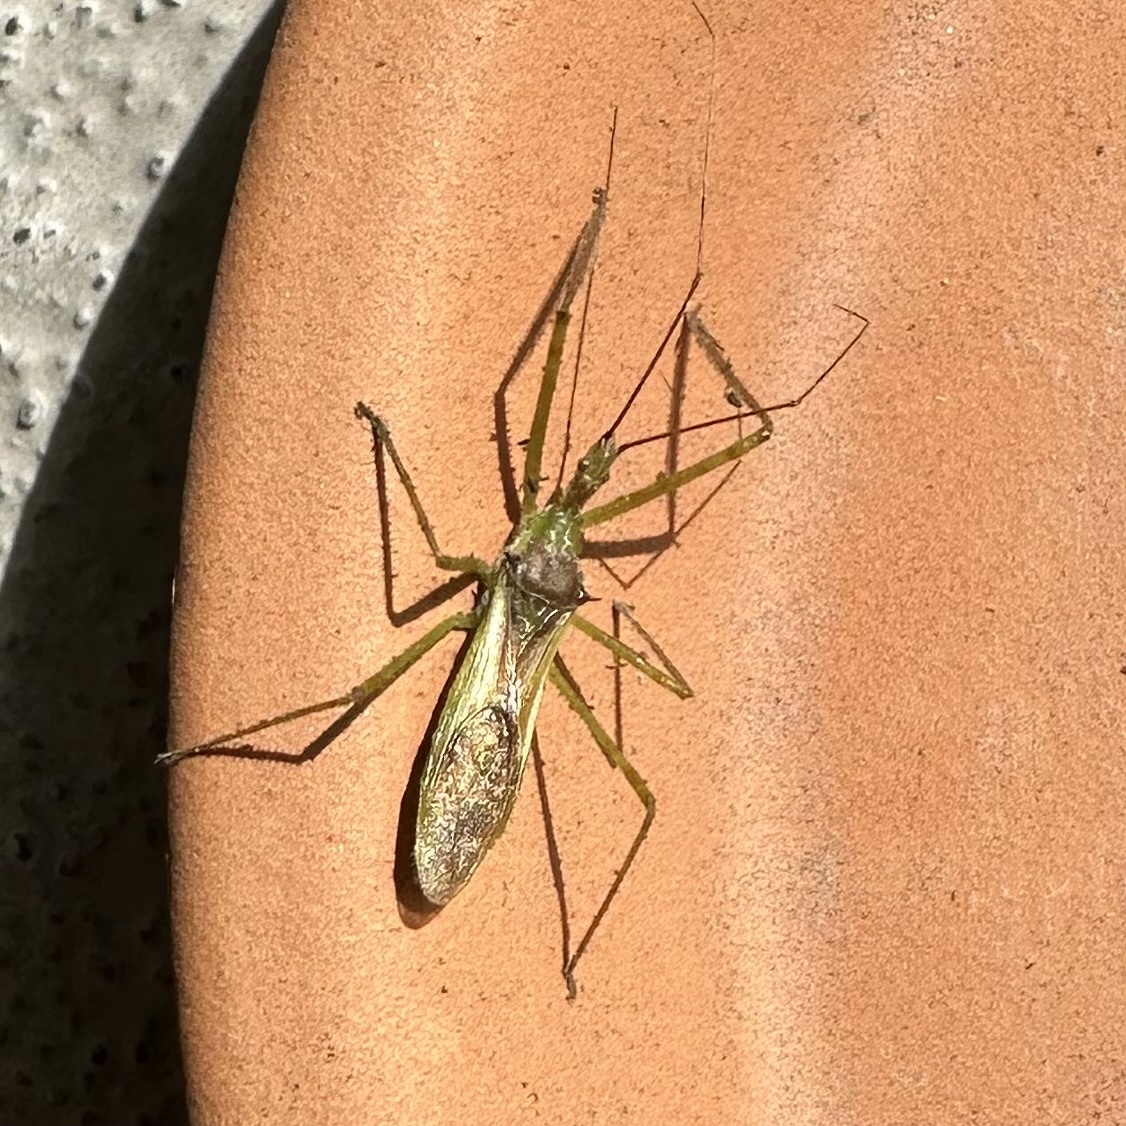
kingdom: Animalia
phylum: Arthropoda
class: Insecta
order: Hemiptera
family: Reduviidae
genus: Zelus
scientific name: Zelus luridus
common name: Pale green assassin bug
